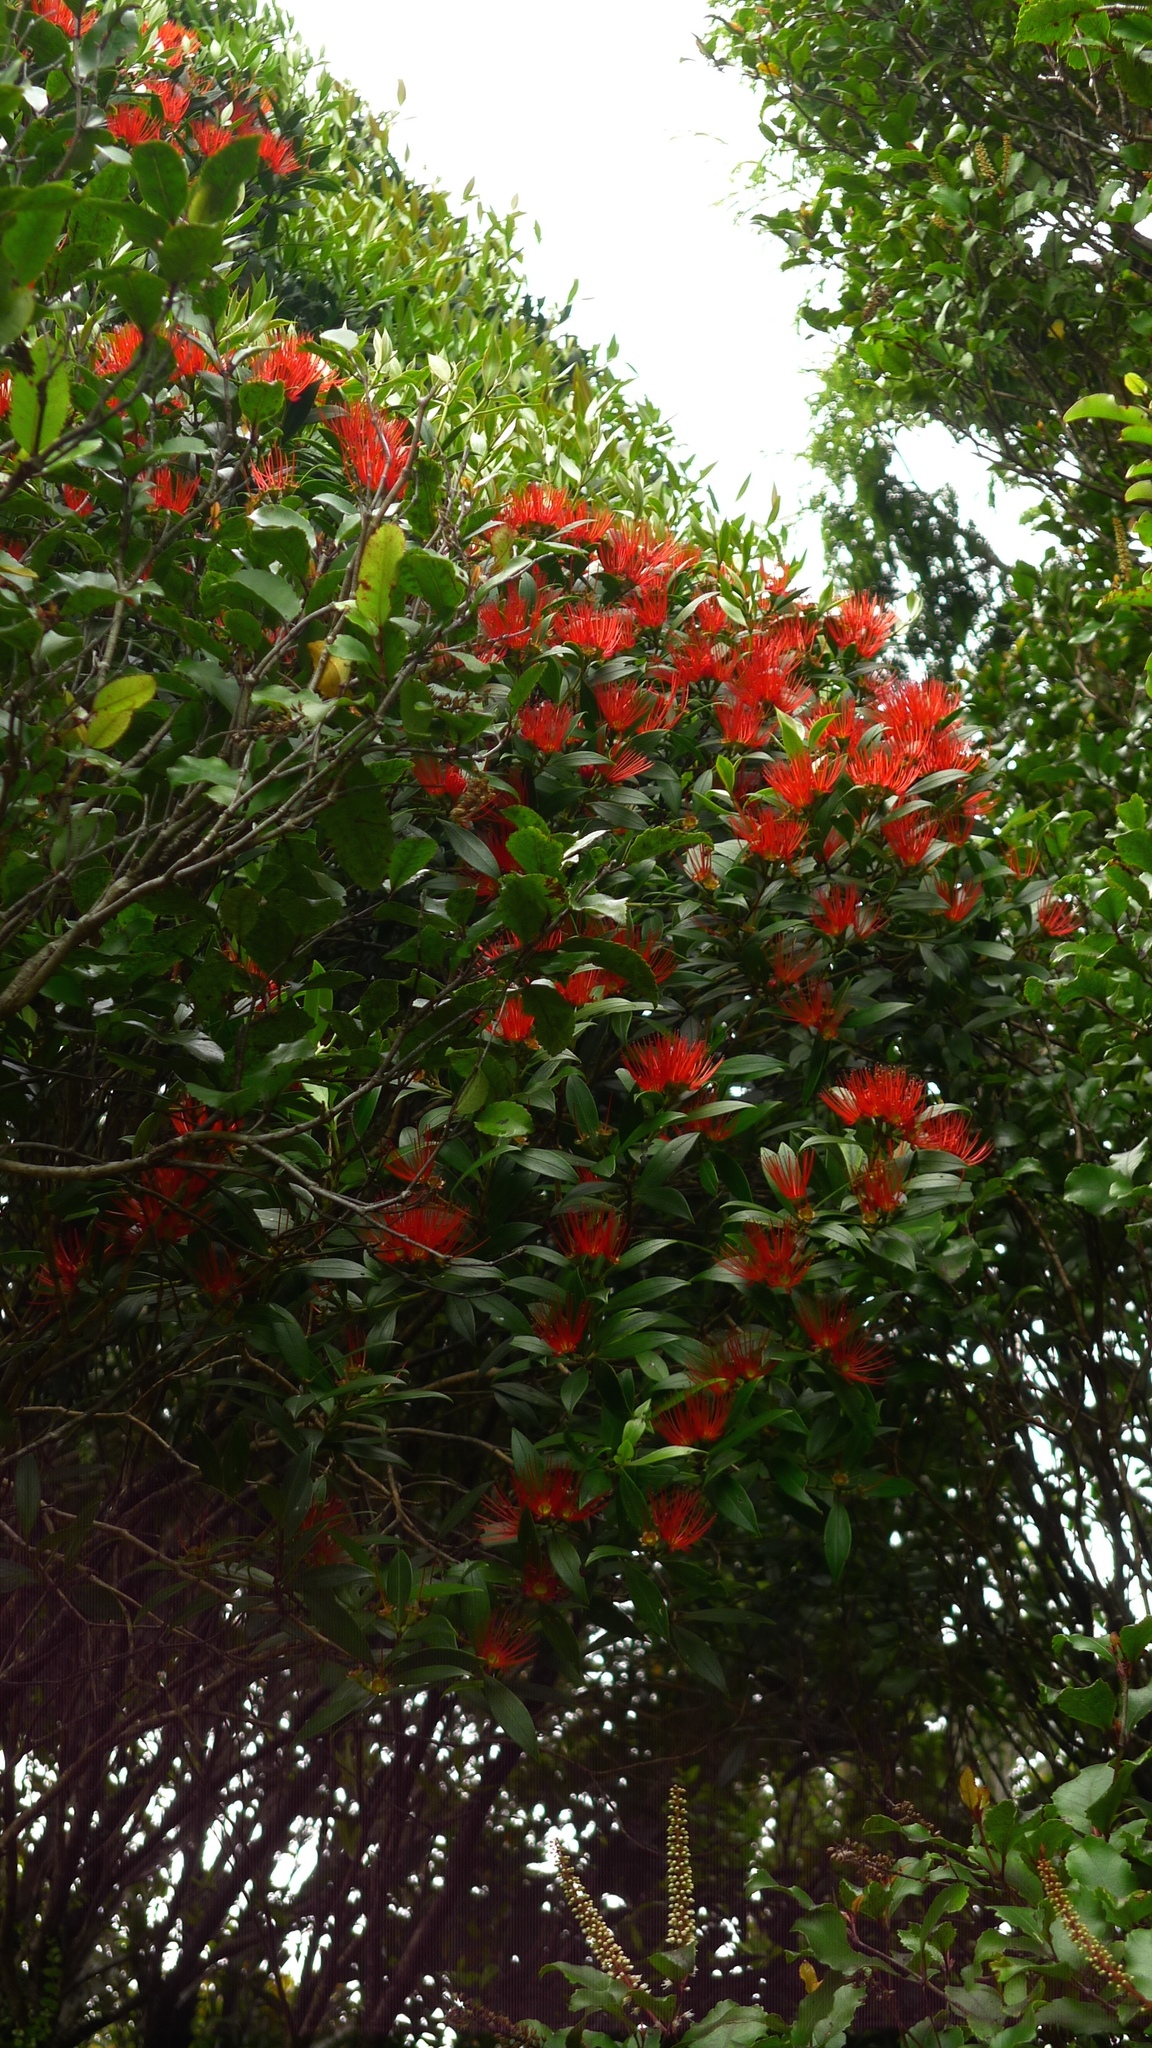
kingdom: Plantae
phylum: Tracheophyta
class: Magnoliopsida
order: Myrtales
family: Myrtaceae
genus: Metrosideros
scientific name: Metrosideros umbellata
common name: Southern rata
